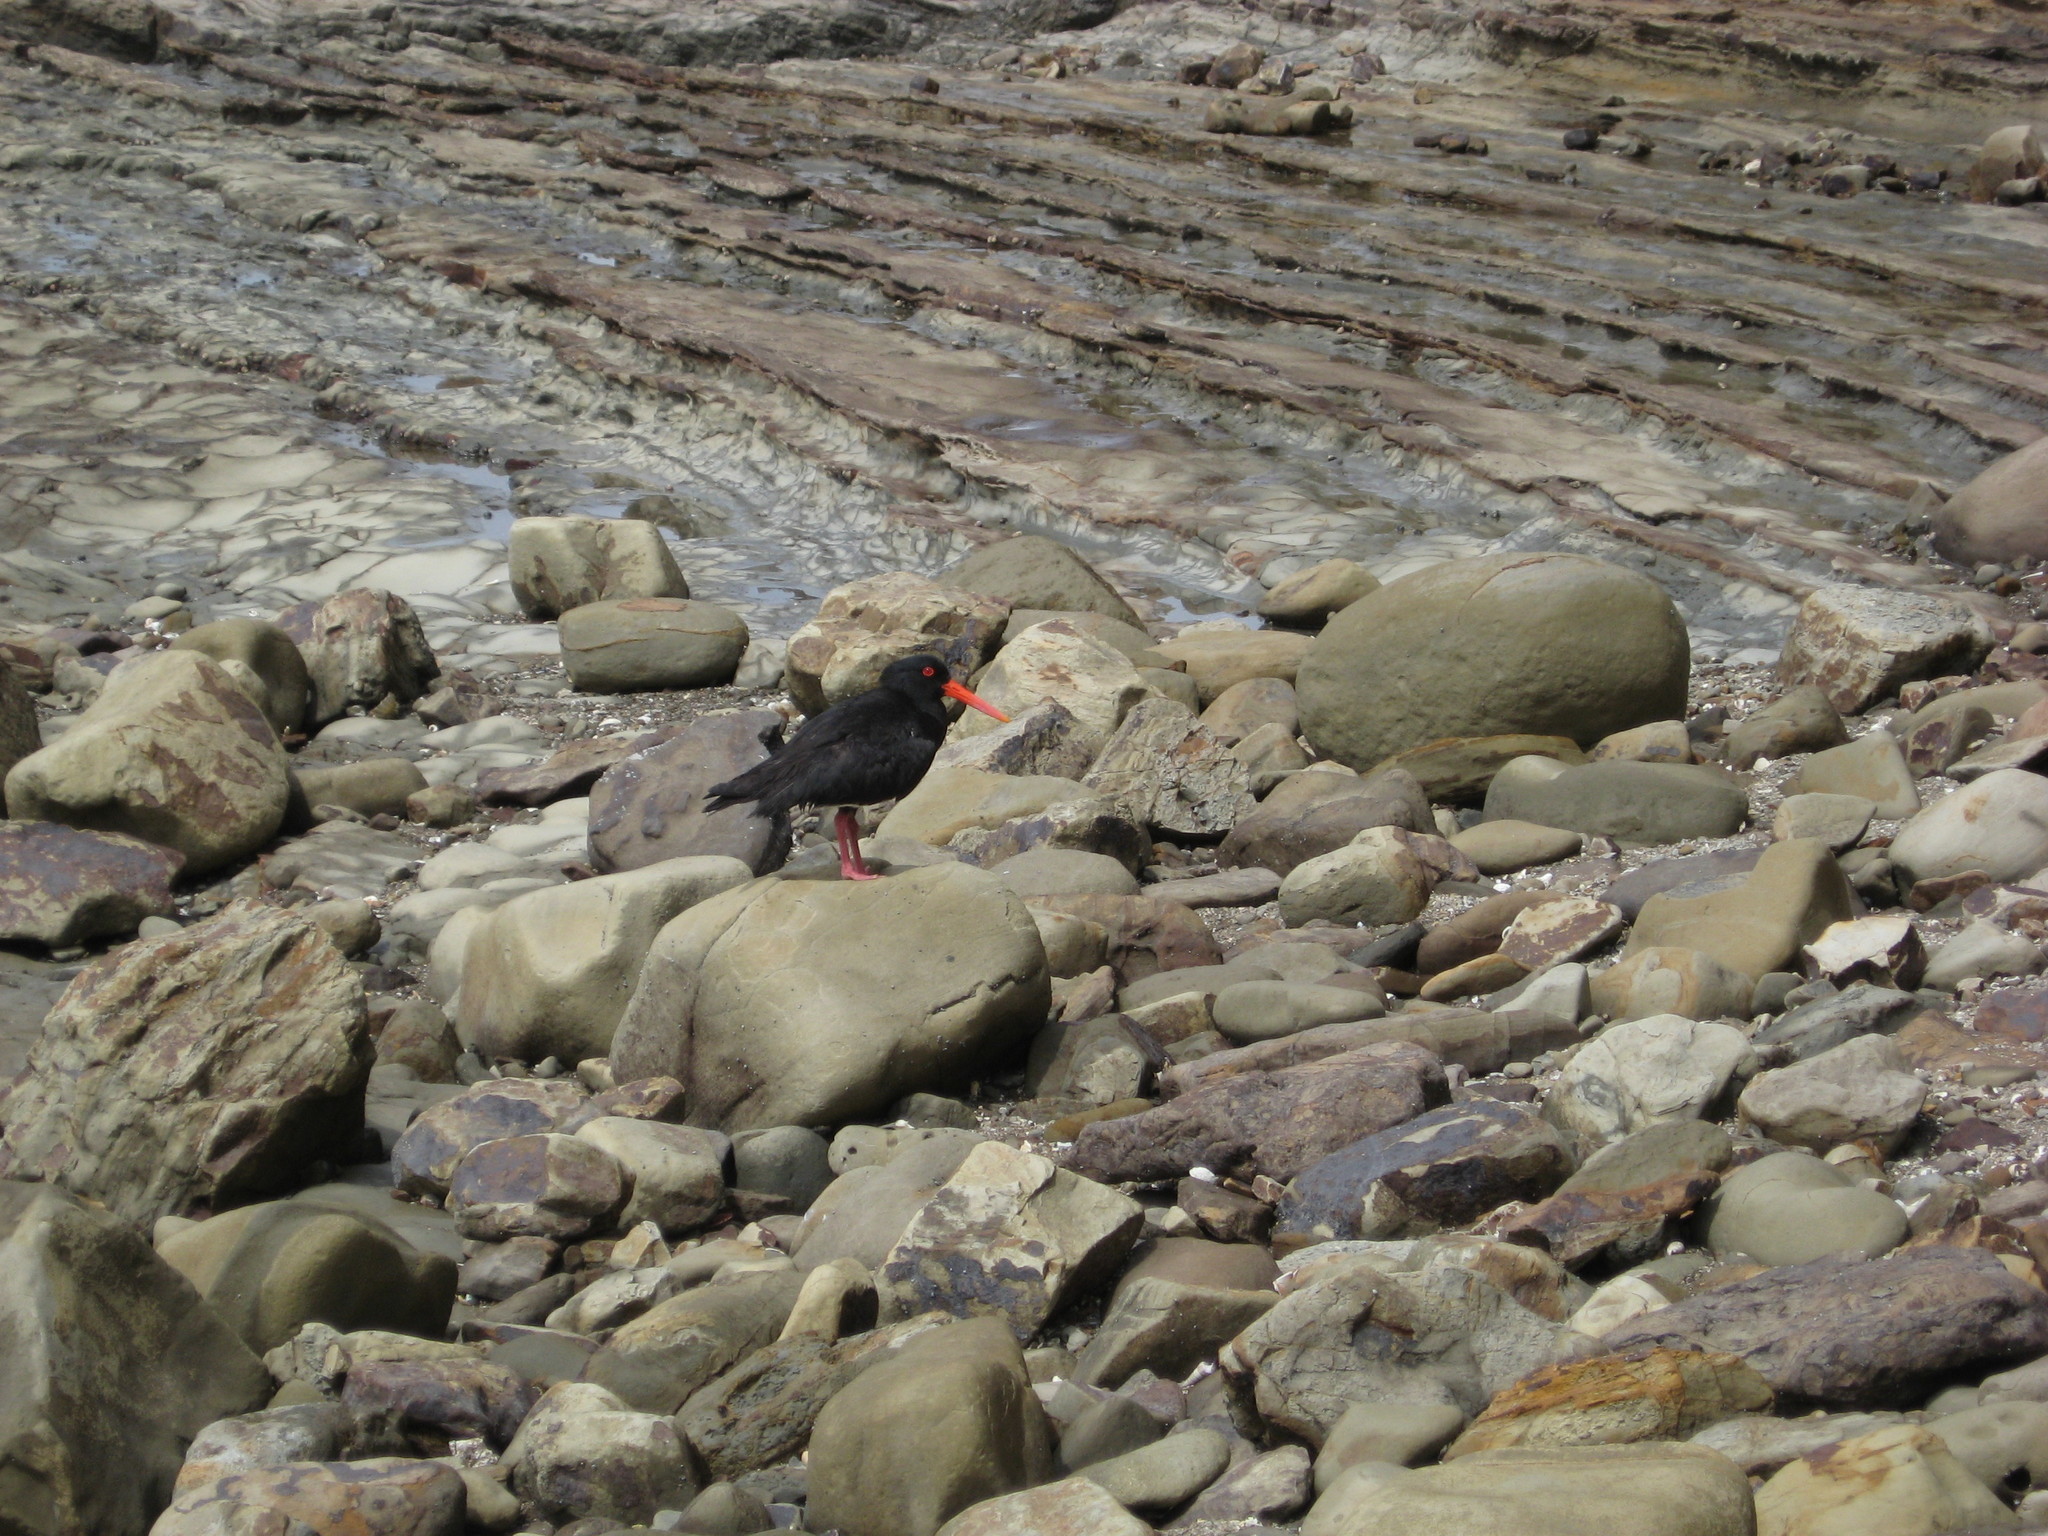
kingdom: Animalia
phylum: Chordata
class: Aves
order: Charadriiformes
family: Haematopodidae
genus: Haematopus
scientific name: Haematopus unicolor
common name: Variable oystercatcher
